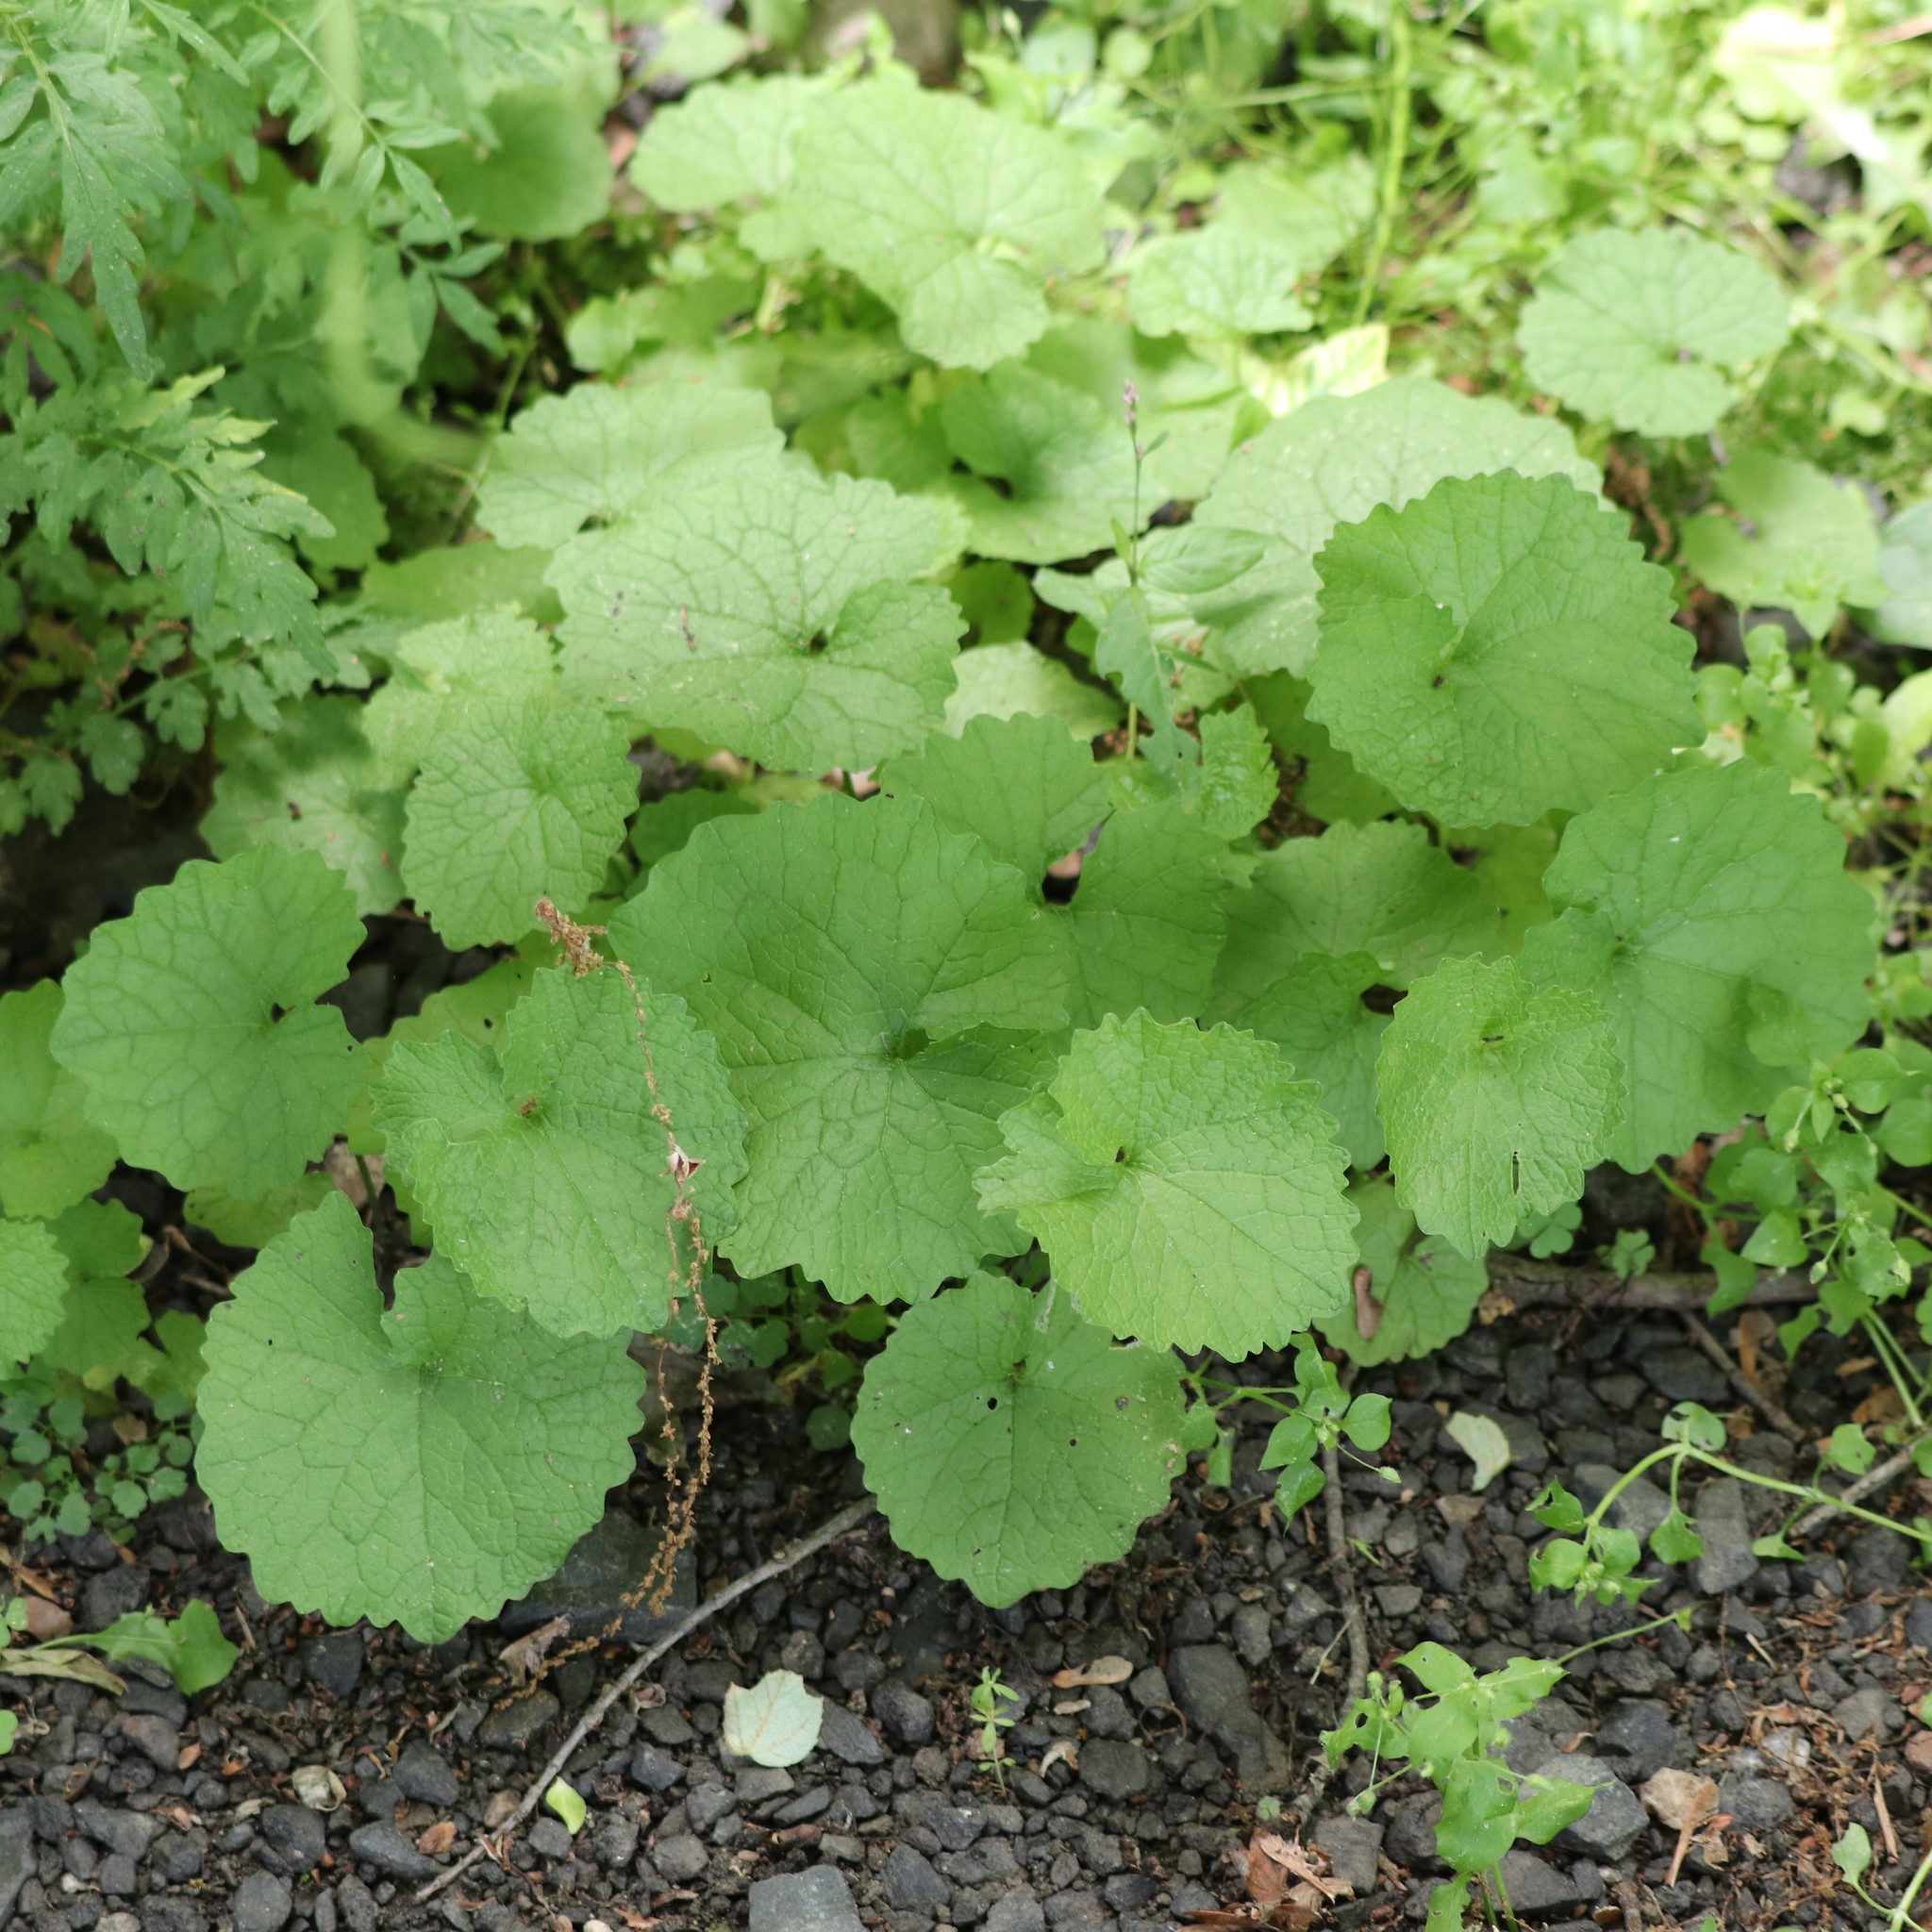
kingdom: Plantae
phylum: Tracheophyta
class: Magnoliopsida
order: Brassicales
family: Brassicaceae
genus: Alliaria
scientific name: Alliaria petiolata
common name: Garlic mustard
